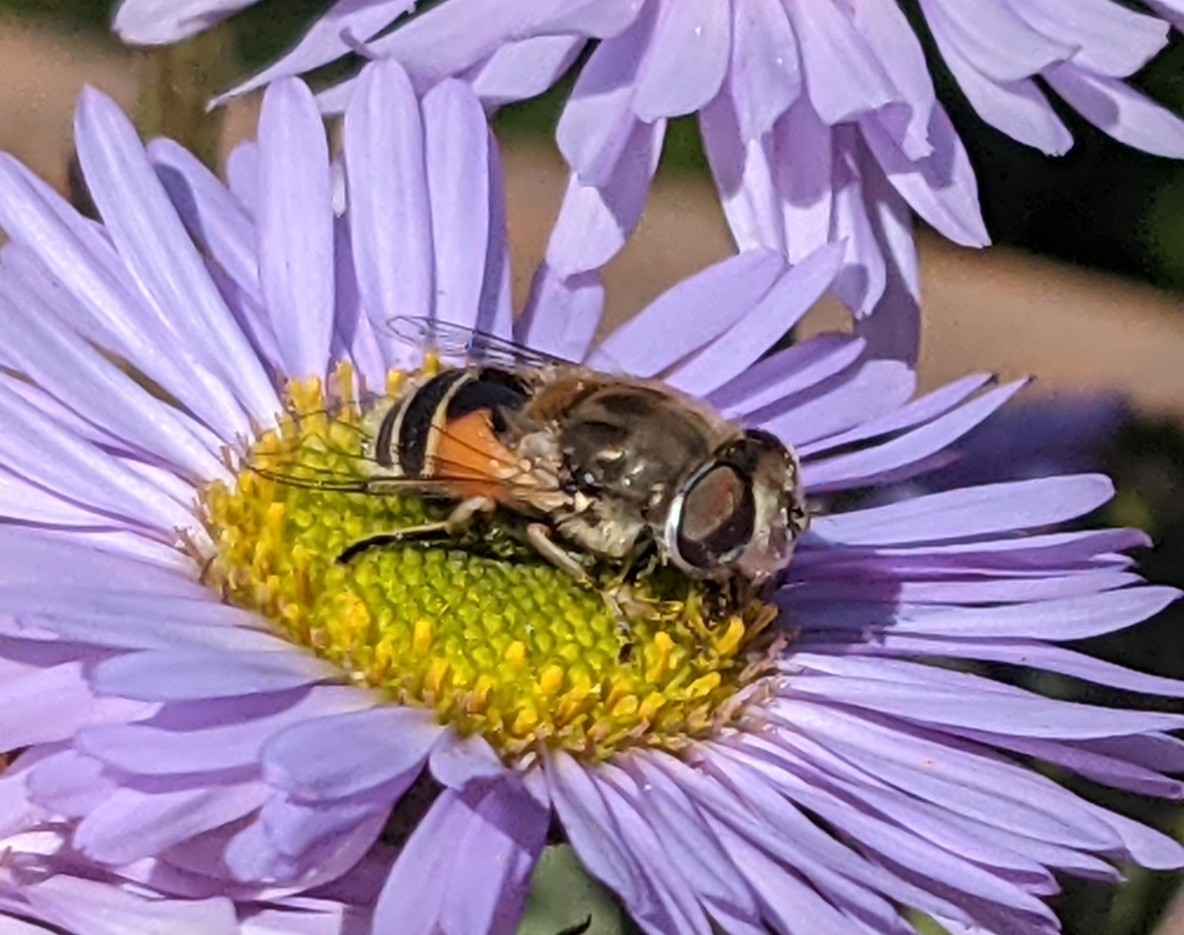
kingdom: Animalia
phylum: Arthropoda
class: Insecta
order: Diptera
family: Syrphidae
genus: Eristalis
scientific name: Eristalis arbustorum
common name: Hover fly
